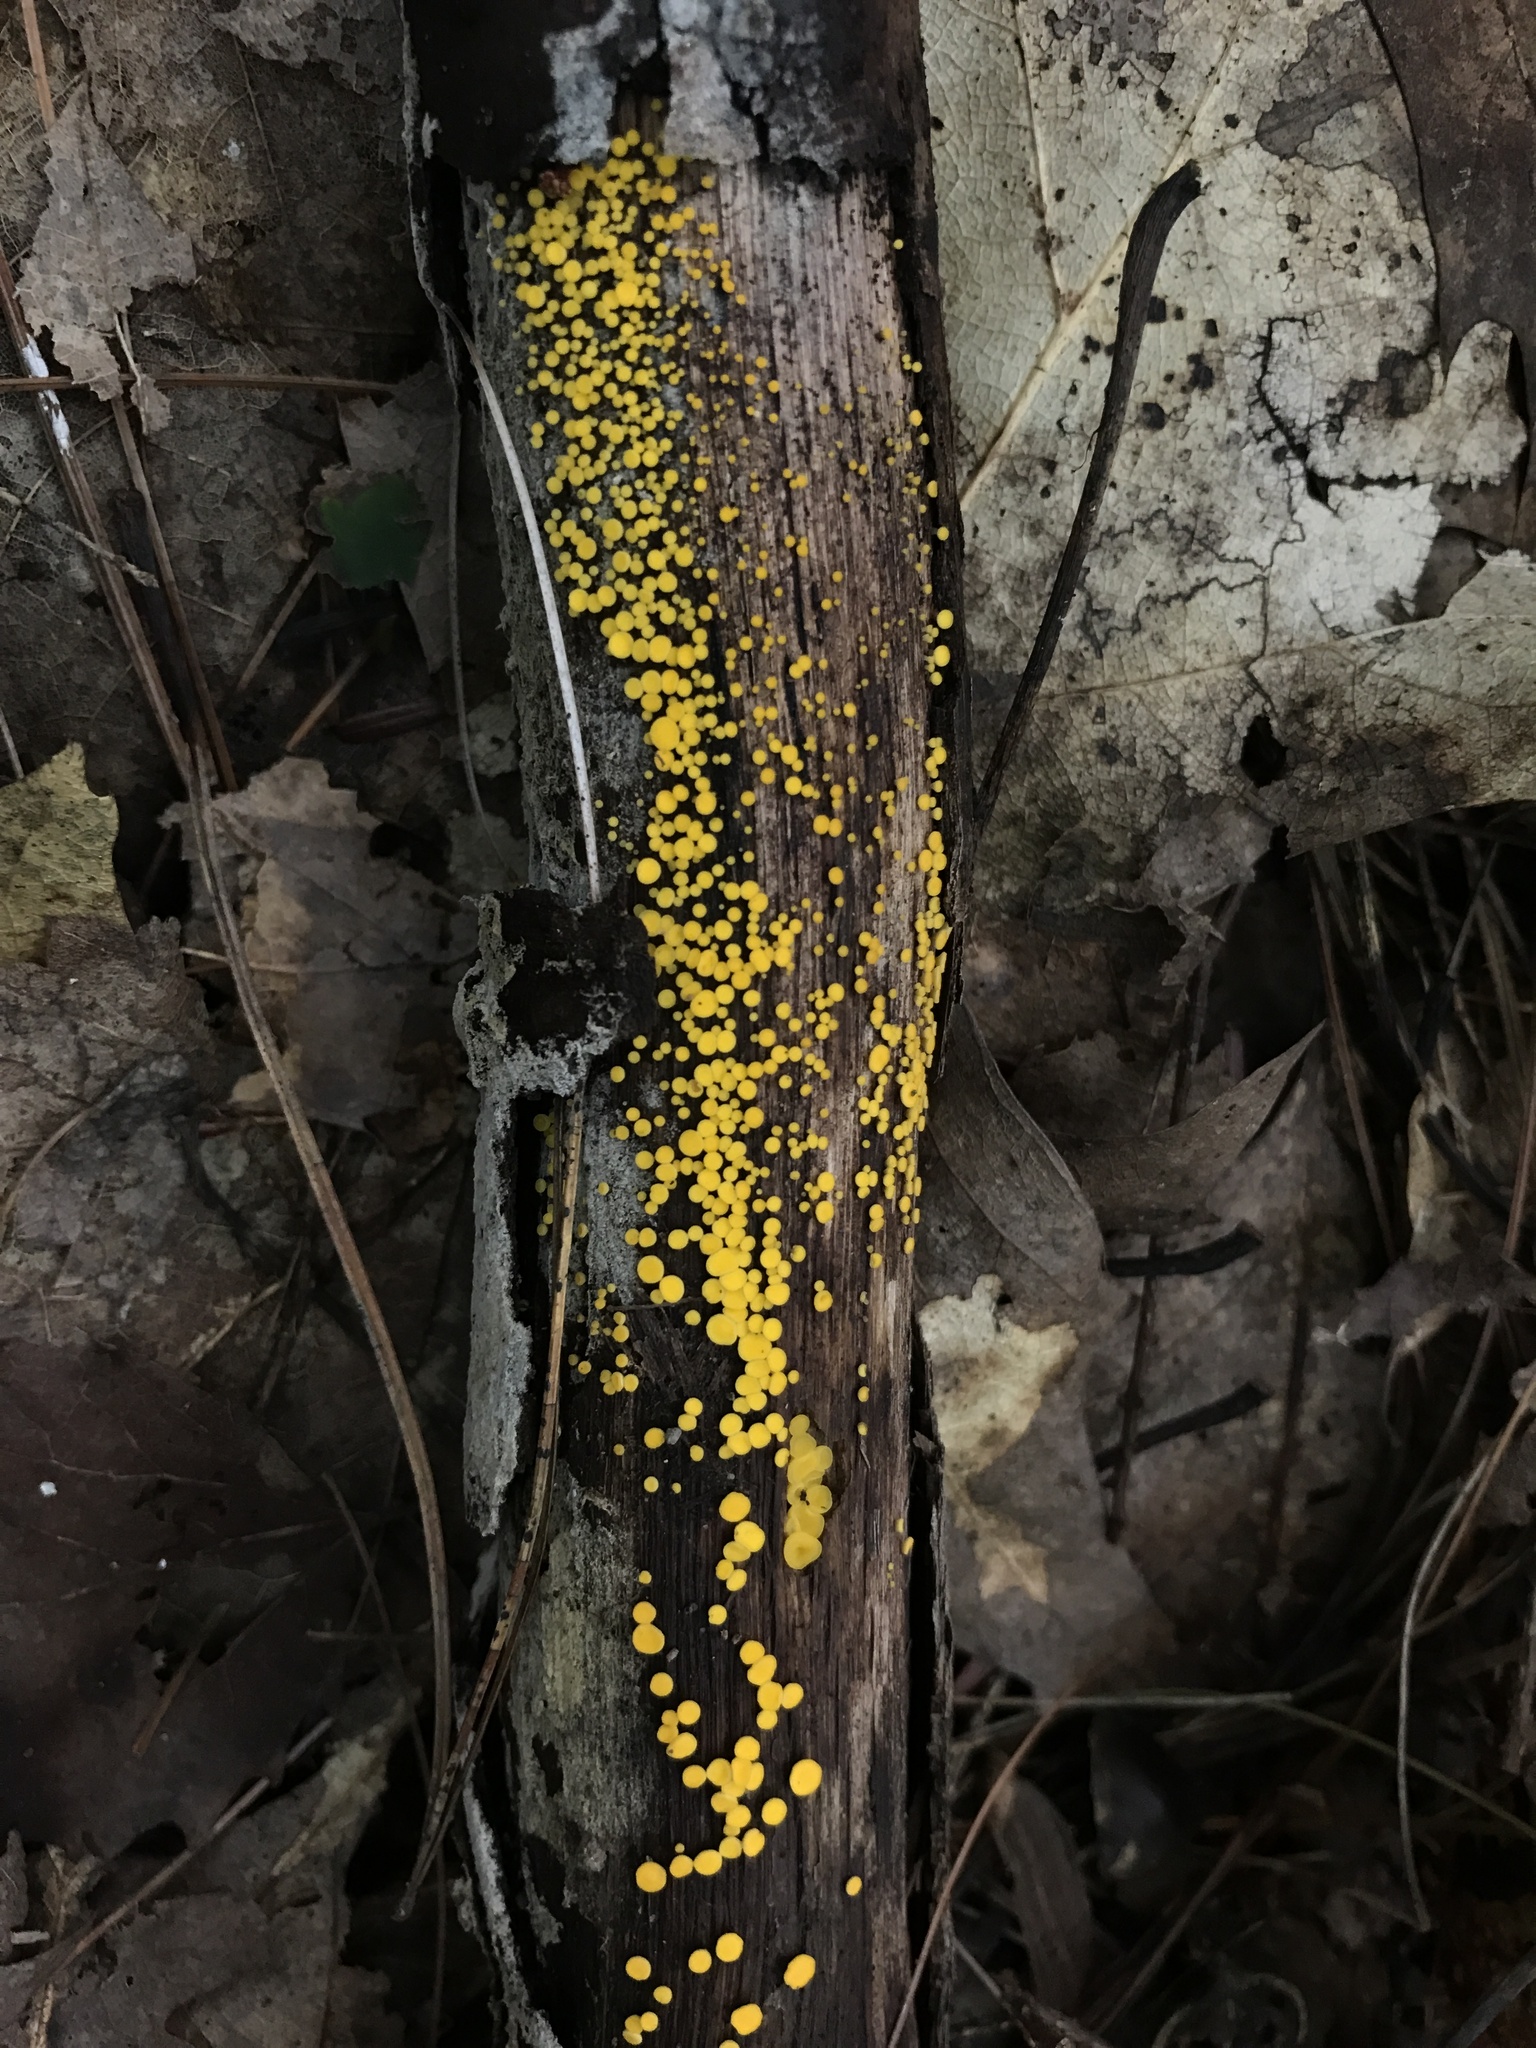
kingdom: Fungi
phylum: Ascomycota
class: Leotiomycetes
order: Helotiales
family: Pezizellaceae
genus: Calycina
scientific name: Calycina citrina
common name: Yellow fairy cups
